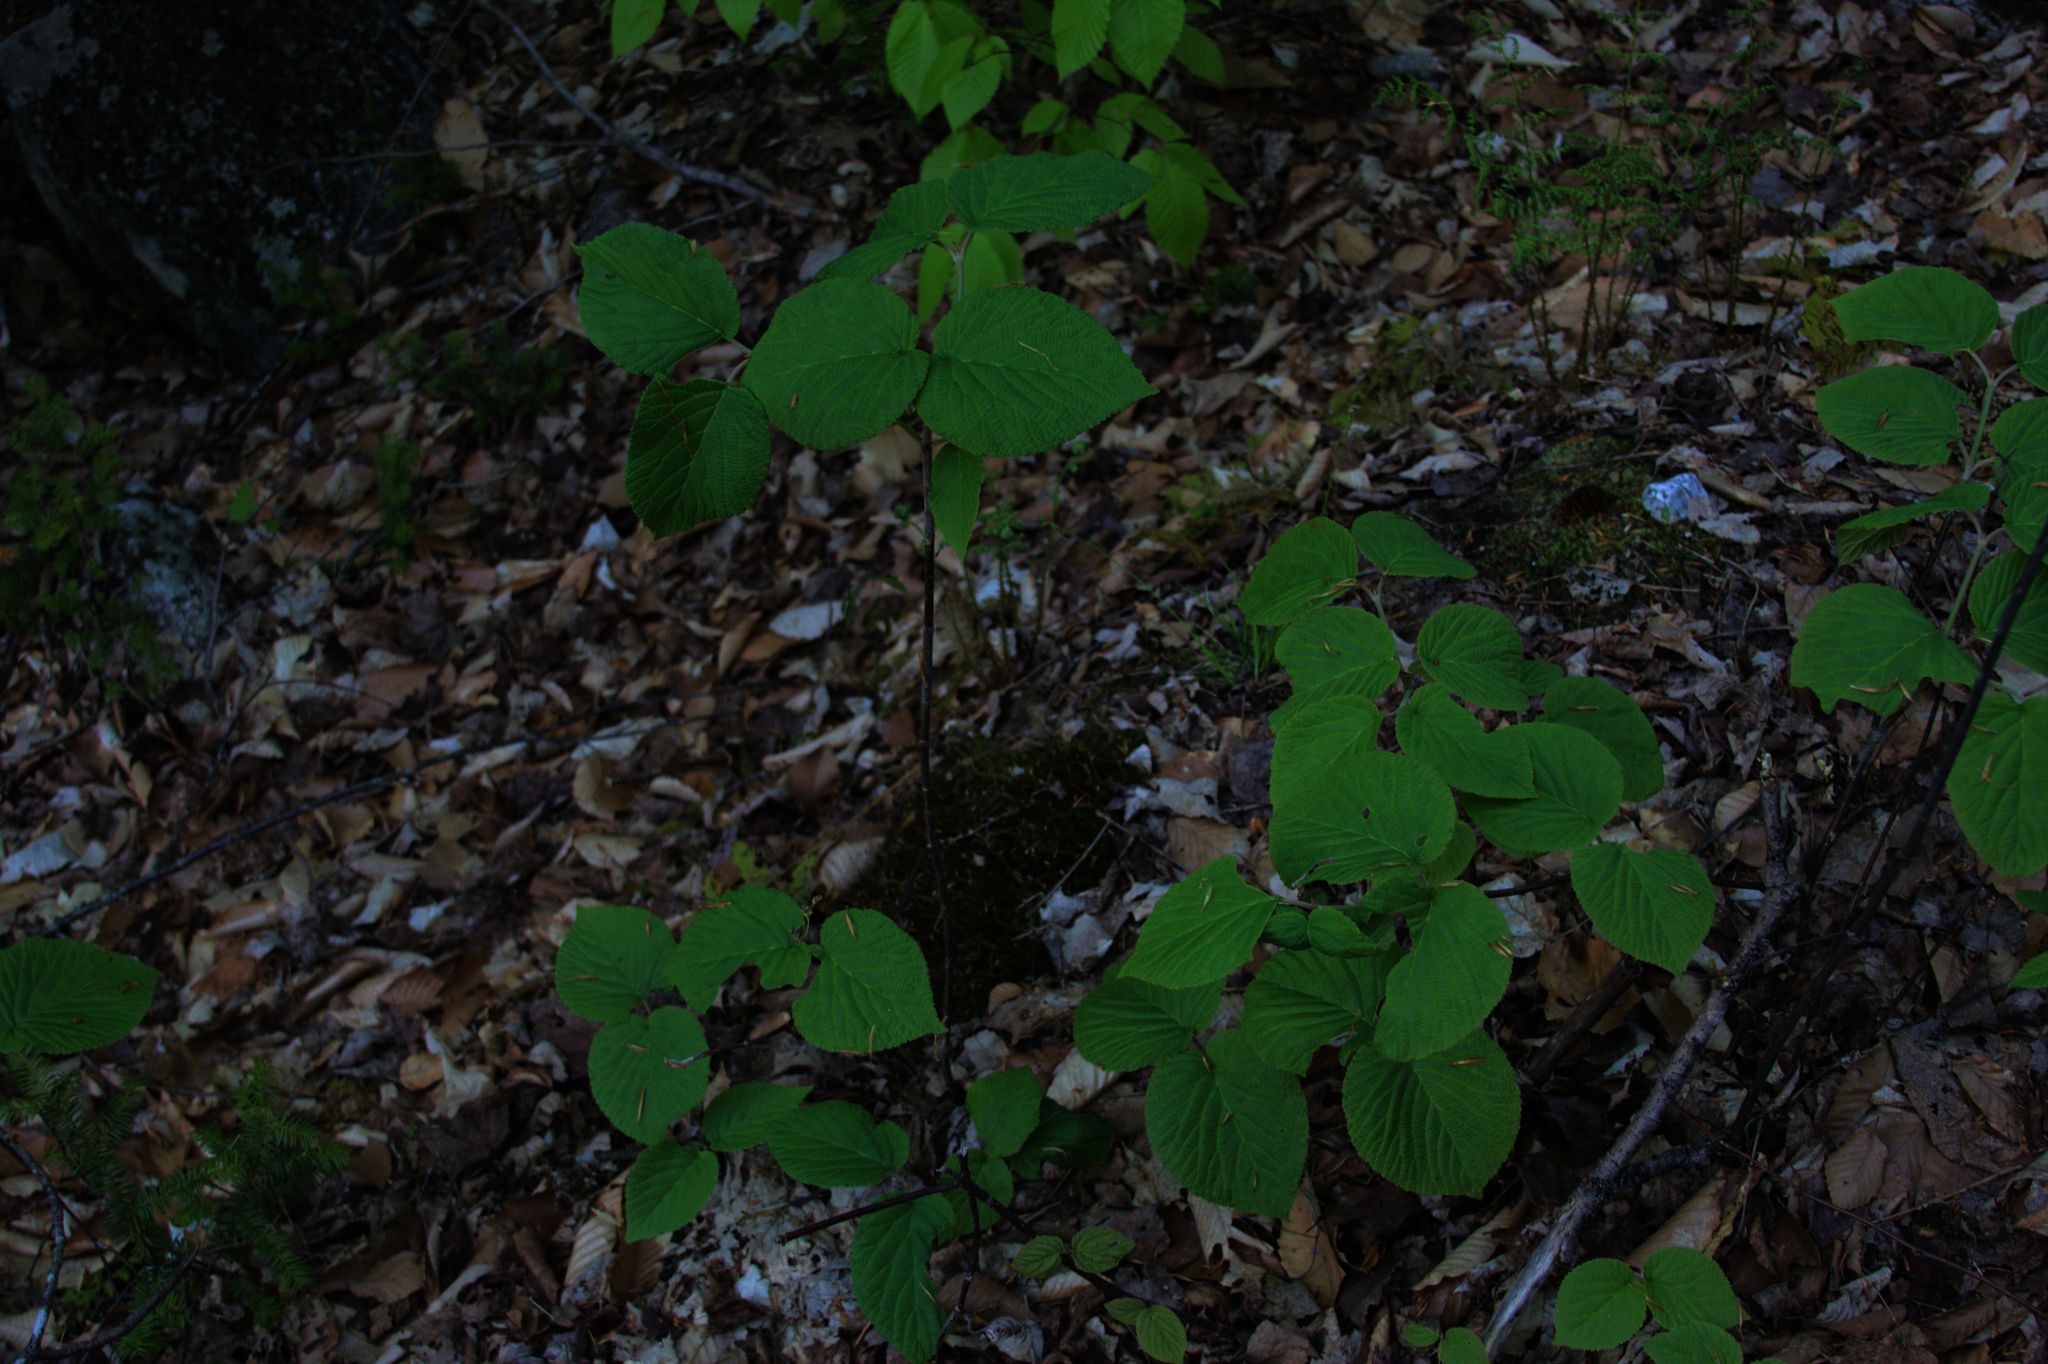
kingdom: Plantae
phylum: Tracheophyta
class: Magnoliopsida
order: Dipsacales
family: Viburnaceae
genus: Viburnum
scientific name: Viburnum lantanoides
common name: Hobblebush
